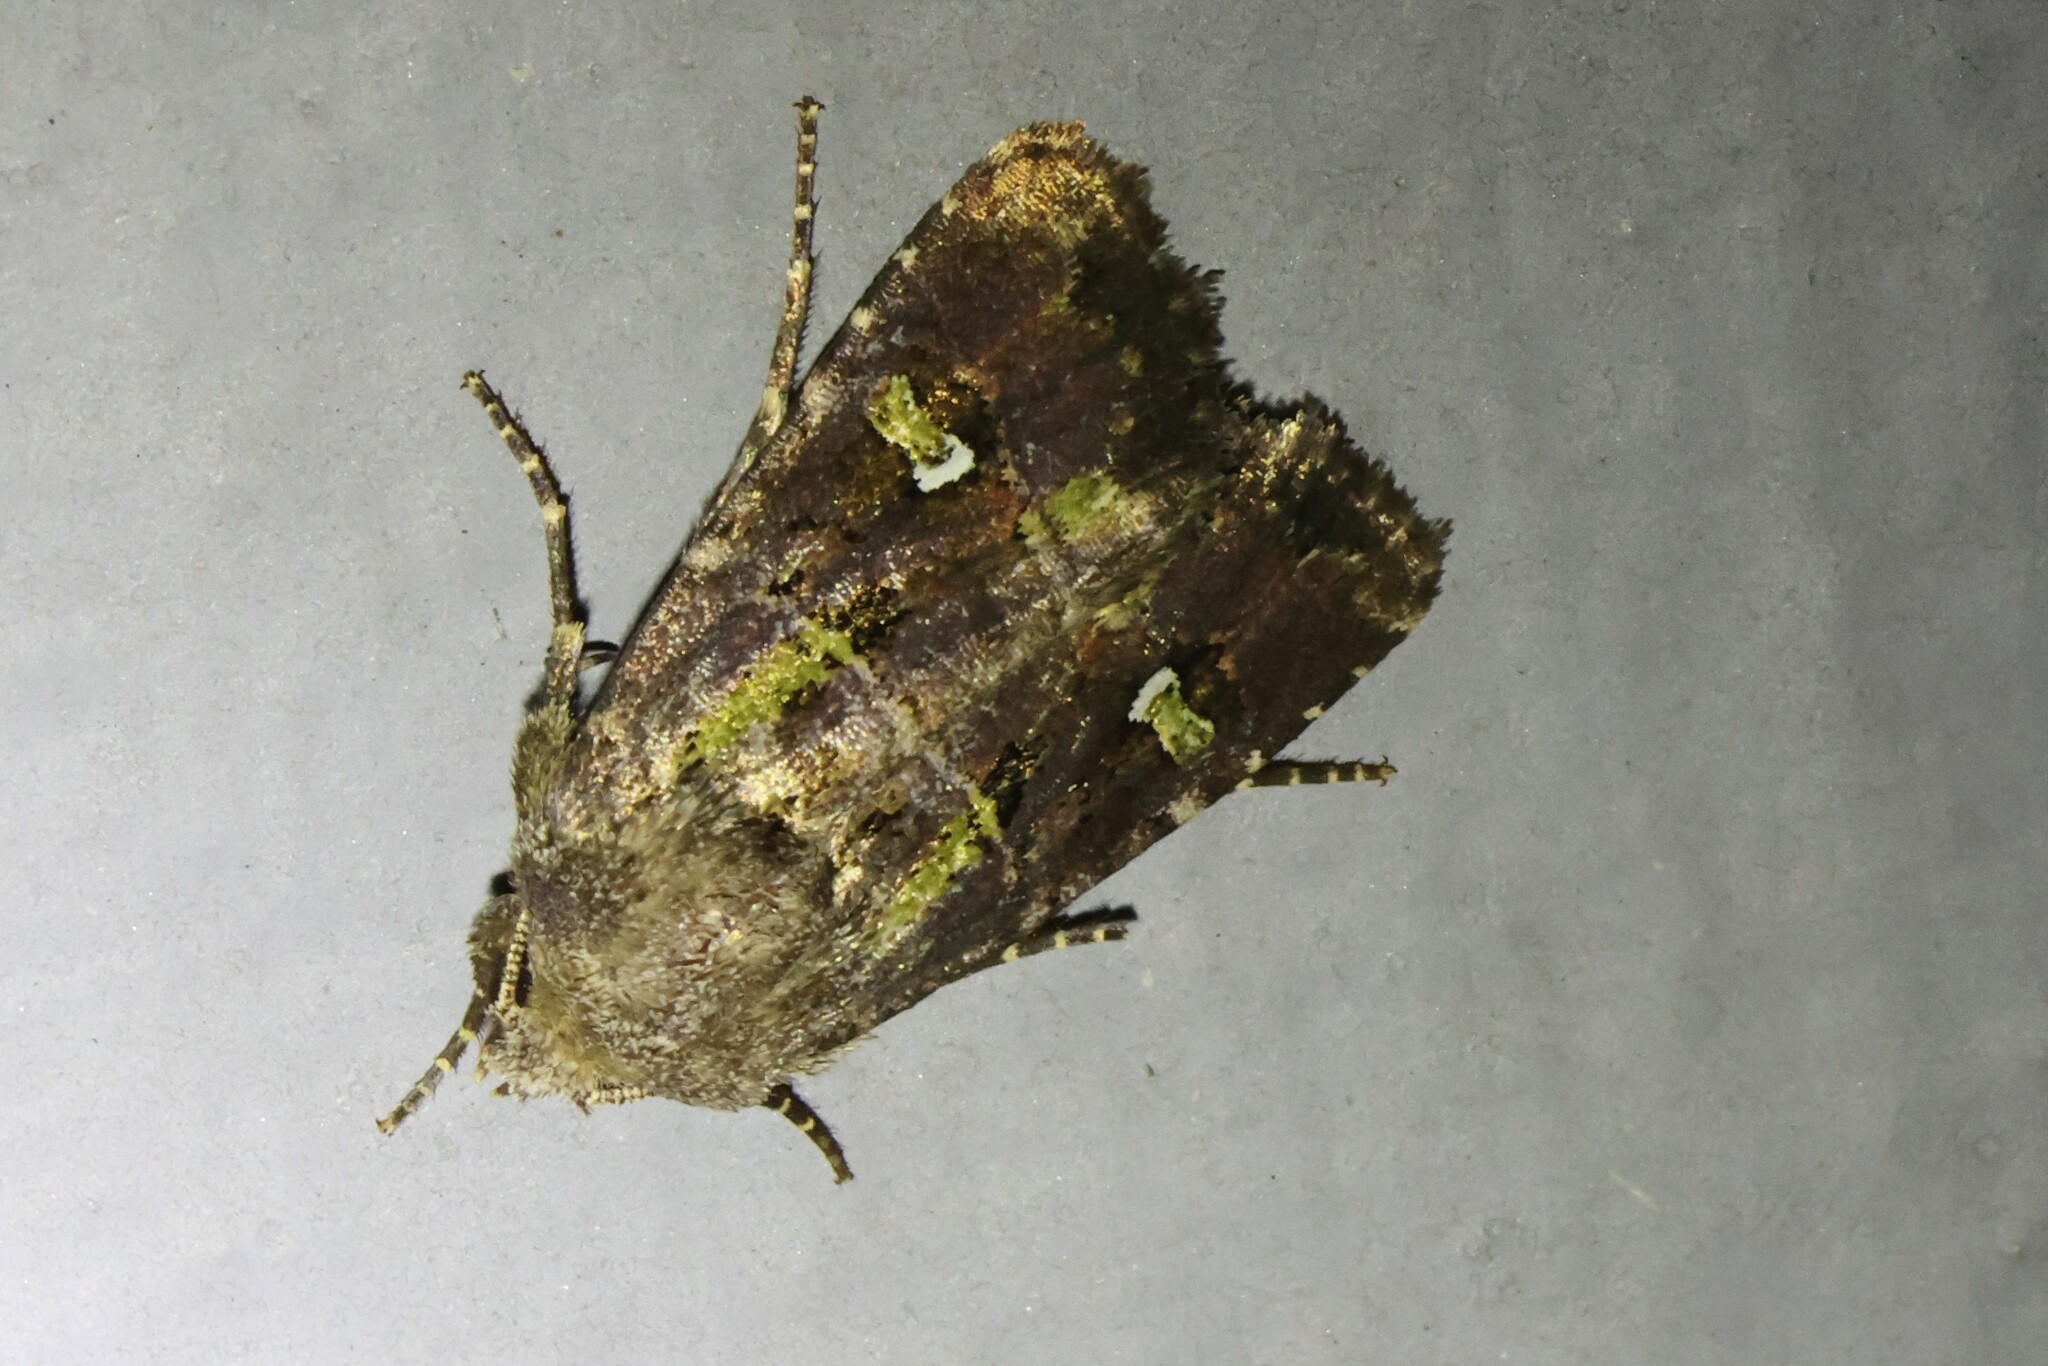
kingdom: Animalia
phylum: Arthropoda
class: Insecta
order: Lepidoptera
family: Noctuidae
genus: Lacinipolia
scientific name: Lacinipolia renigera
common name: Kidney-spotted minor
